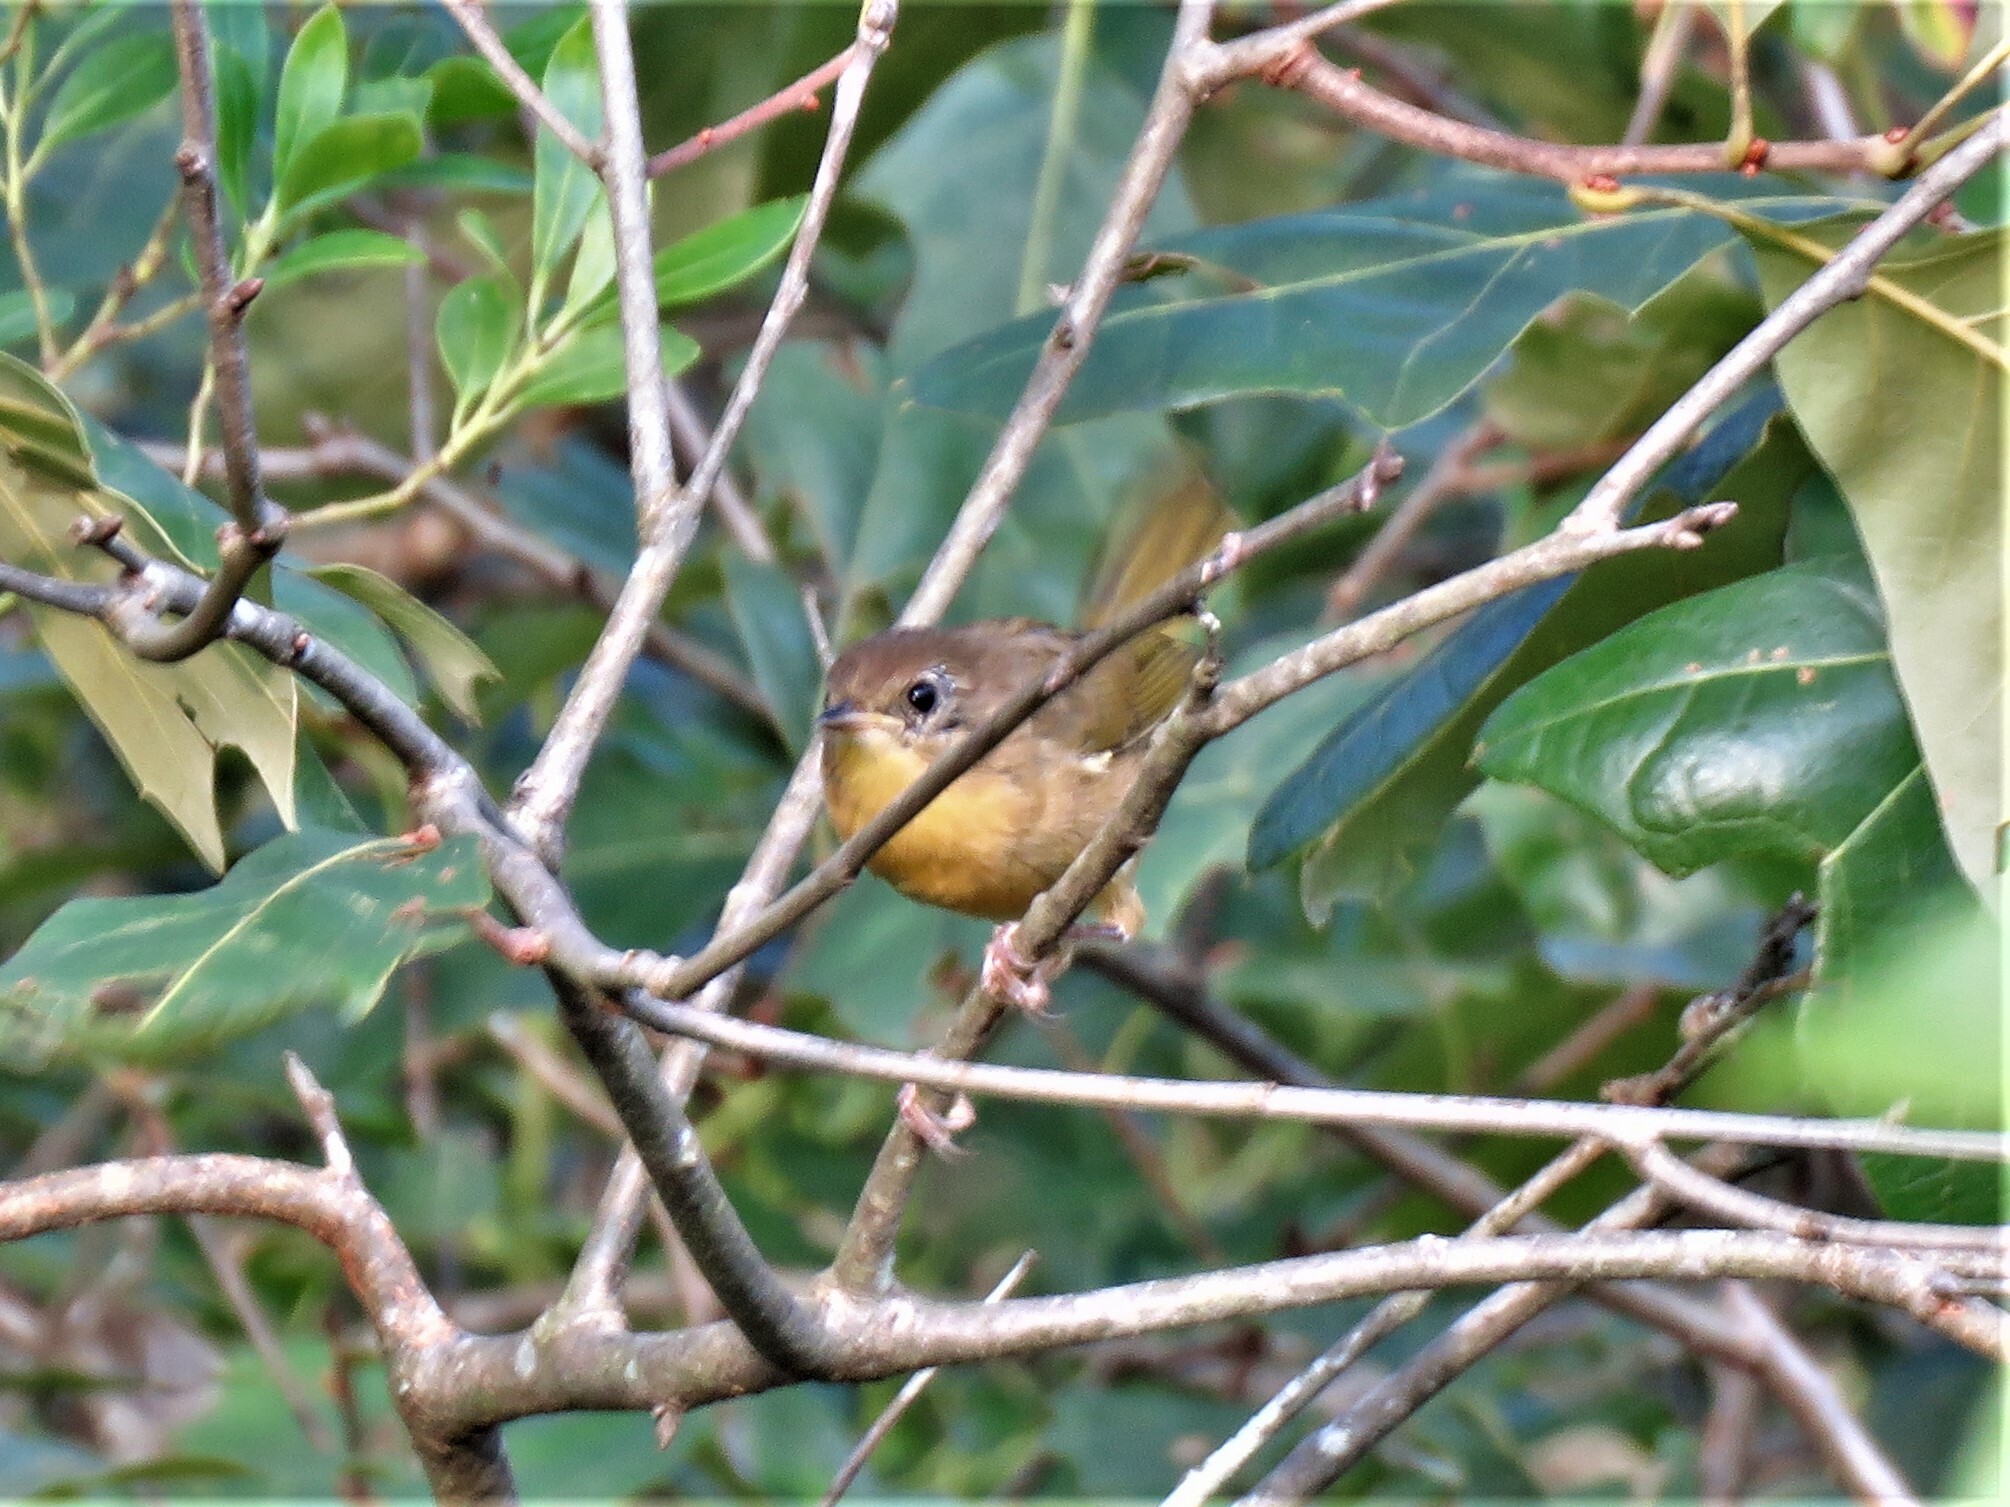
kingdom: Animalia
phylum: Chordata
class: Aves
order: Passeriformes
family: Parulidae
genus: Geothlypis
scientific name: Geothlypis trichas
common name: Common yellowthroat
